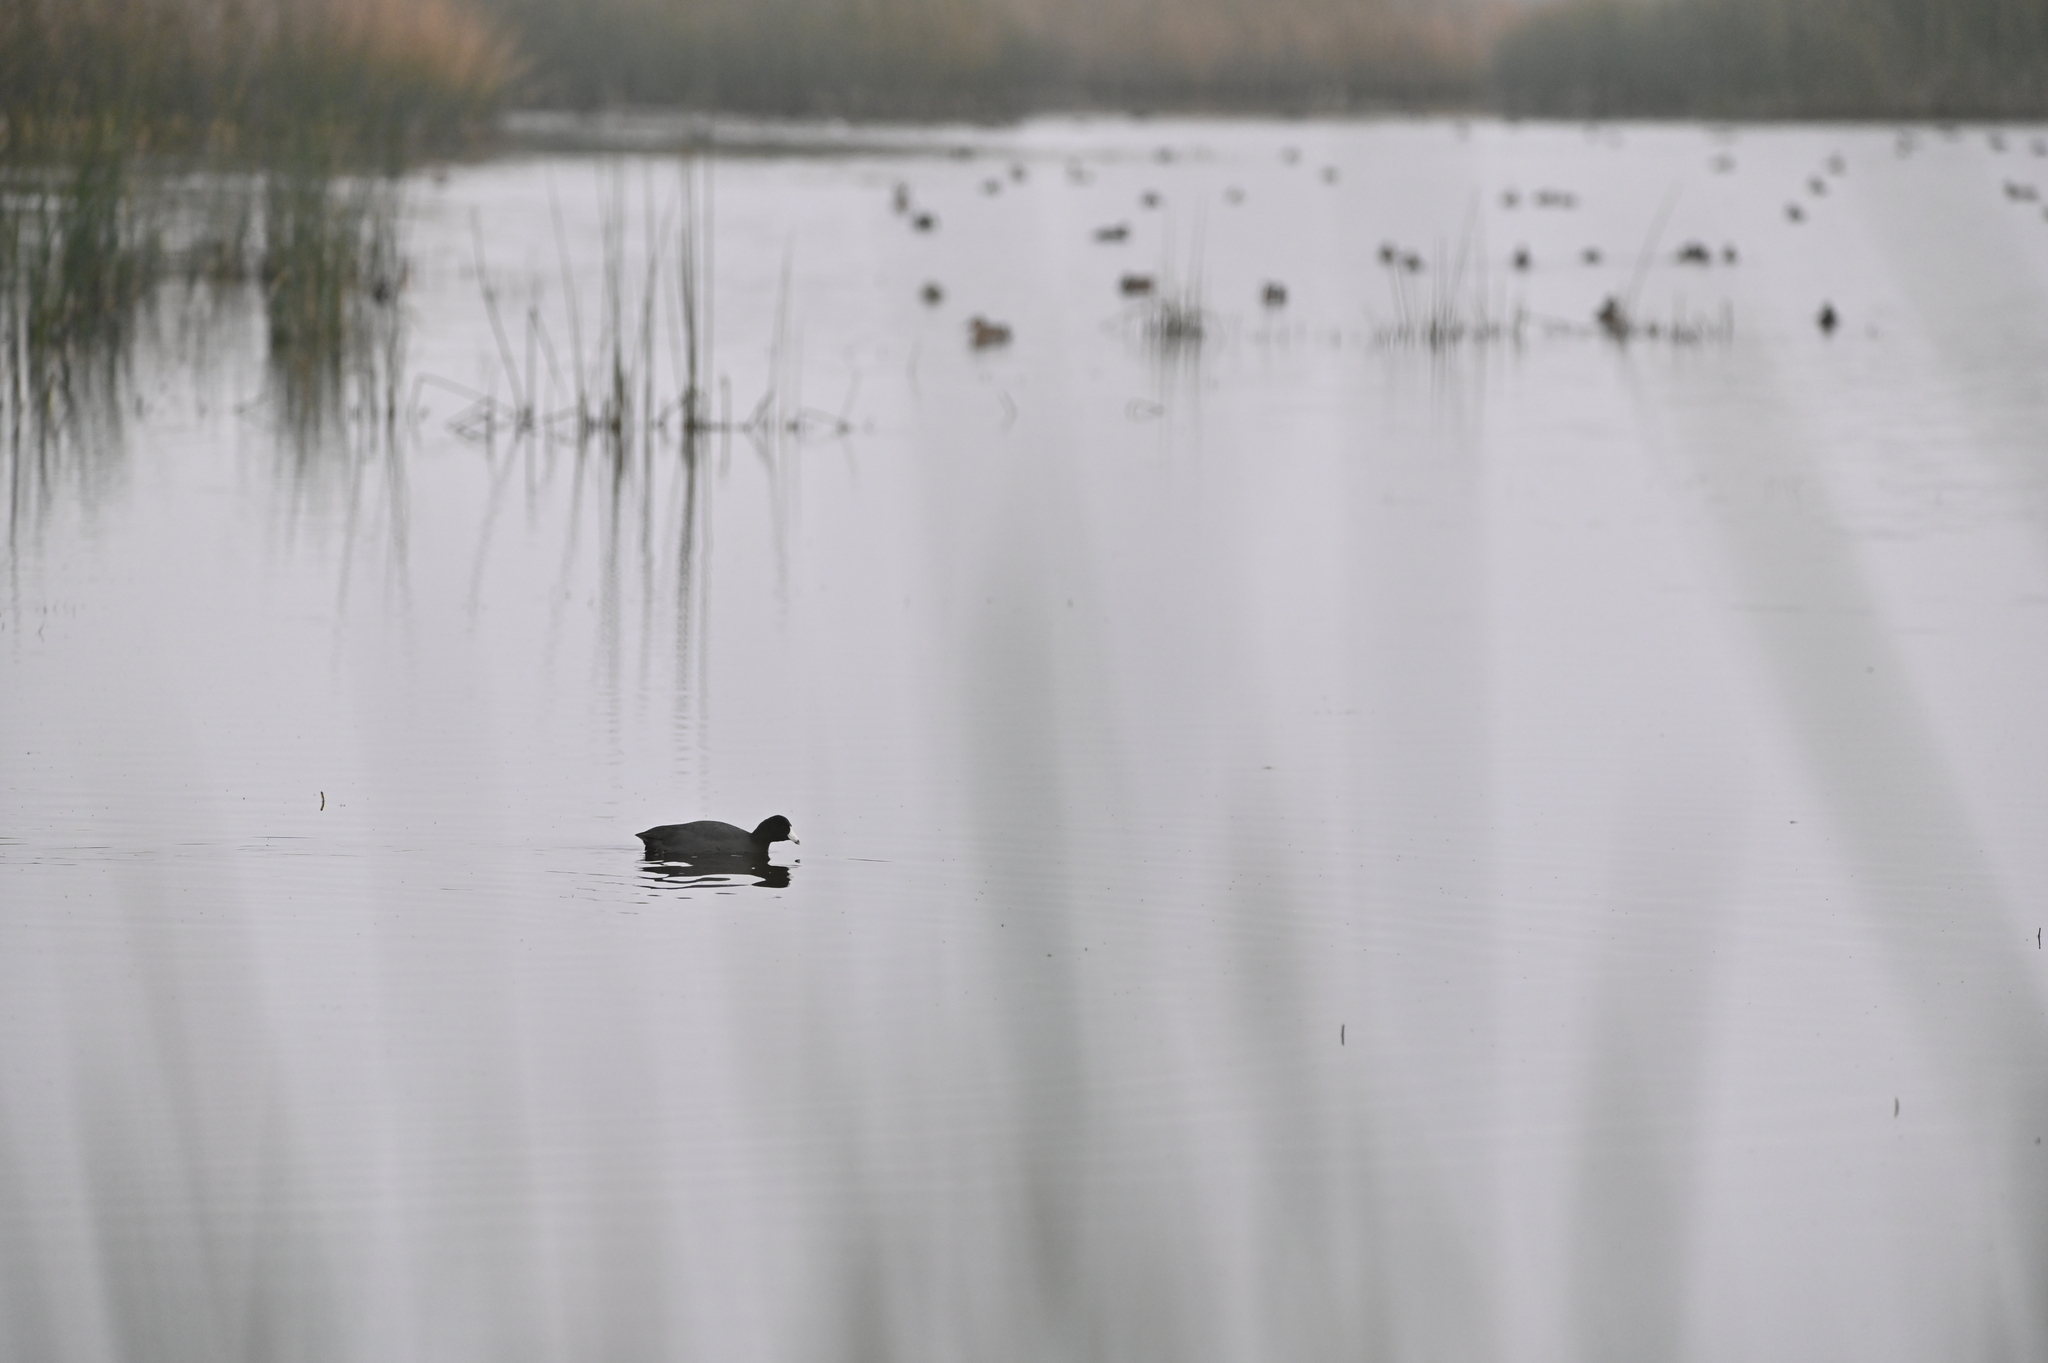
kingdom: Animalia
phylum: Chordata
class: Aves
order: Gruiformes
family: Rallidae
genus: Fulica
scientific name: Fulica americana
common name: American coot
